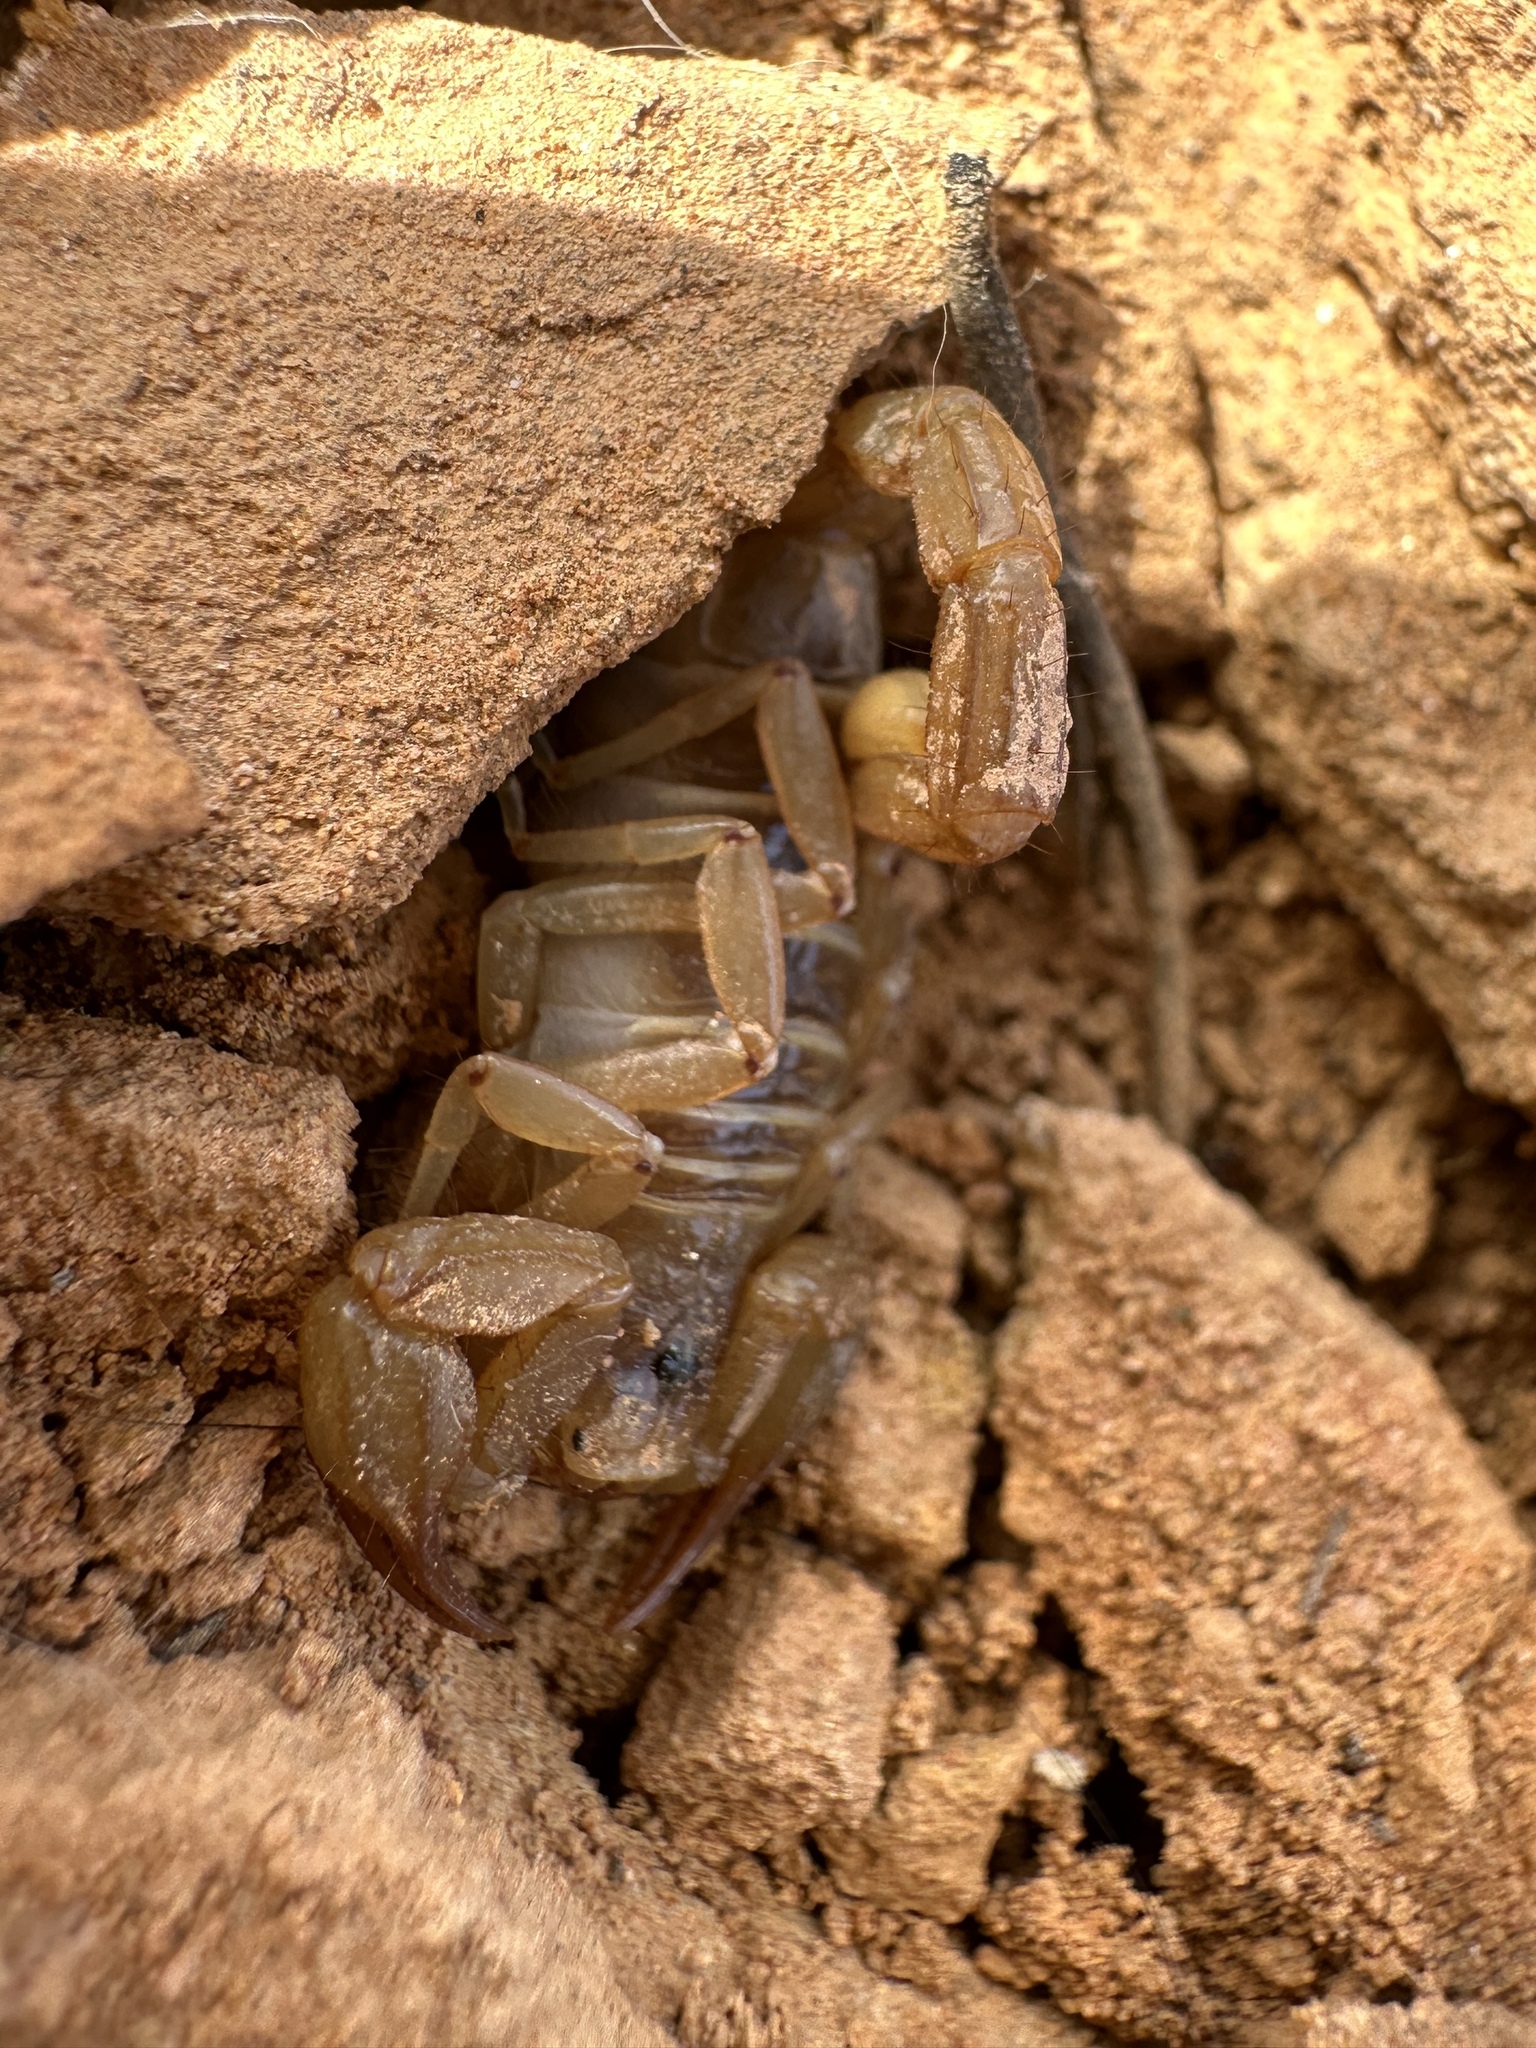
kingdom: Animalia
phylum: Arthropoda
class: Arachnida
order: Scorpiones
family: Vaejovidae
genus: Paruroctonus
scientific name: Paruroctonus boreus
